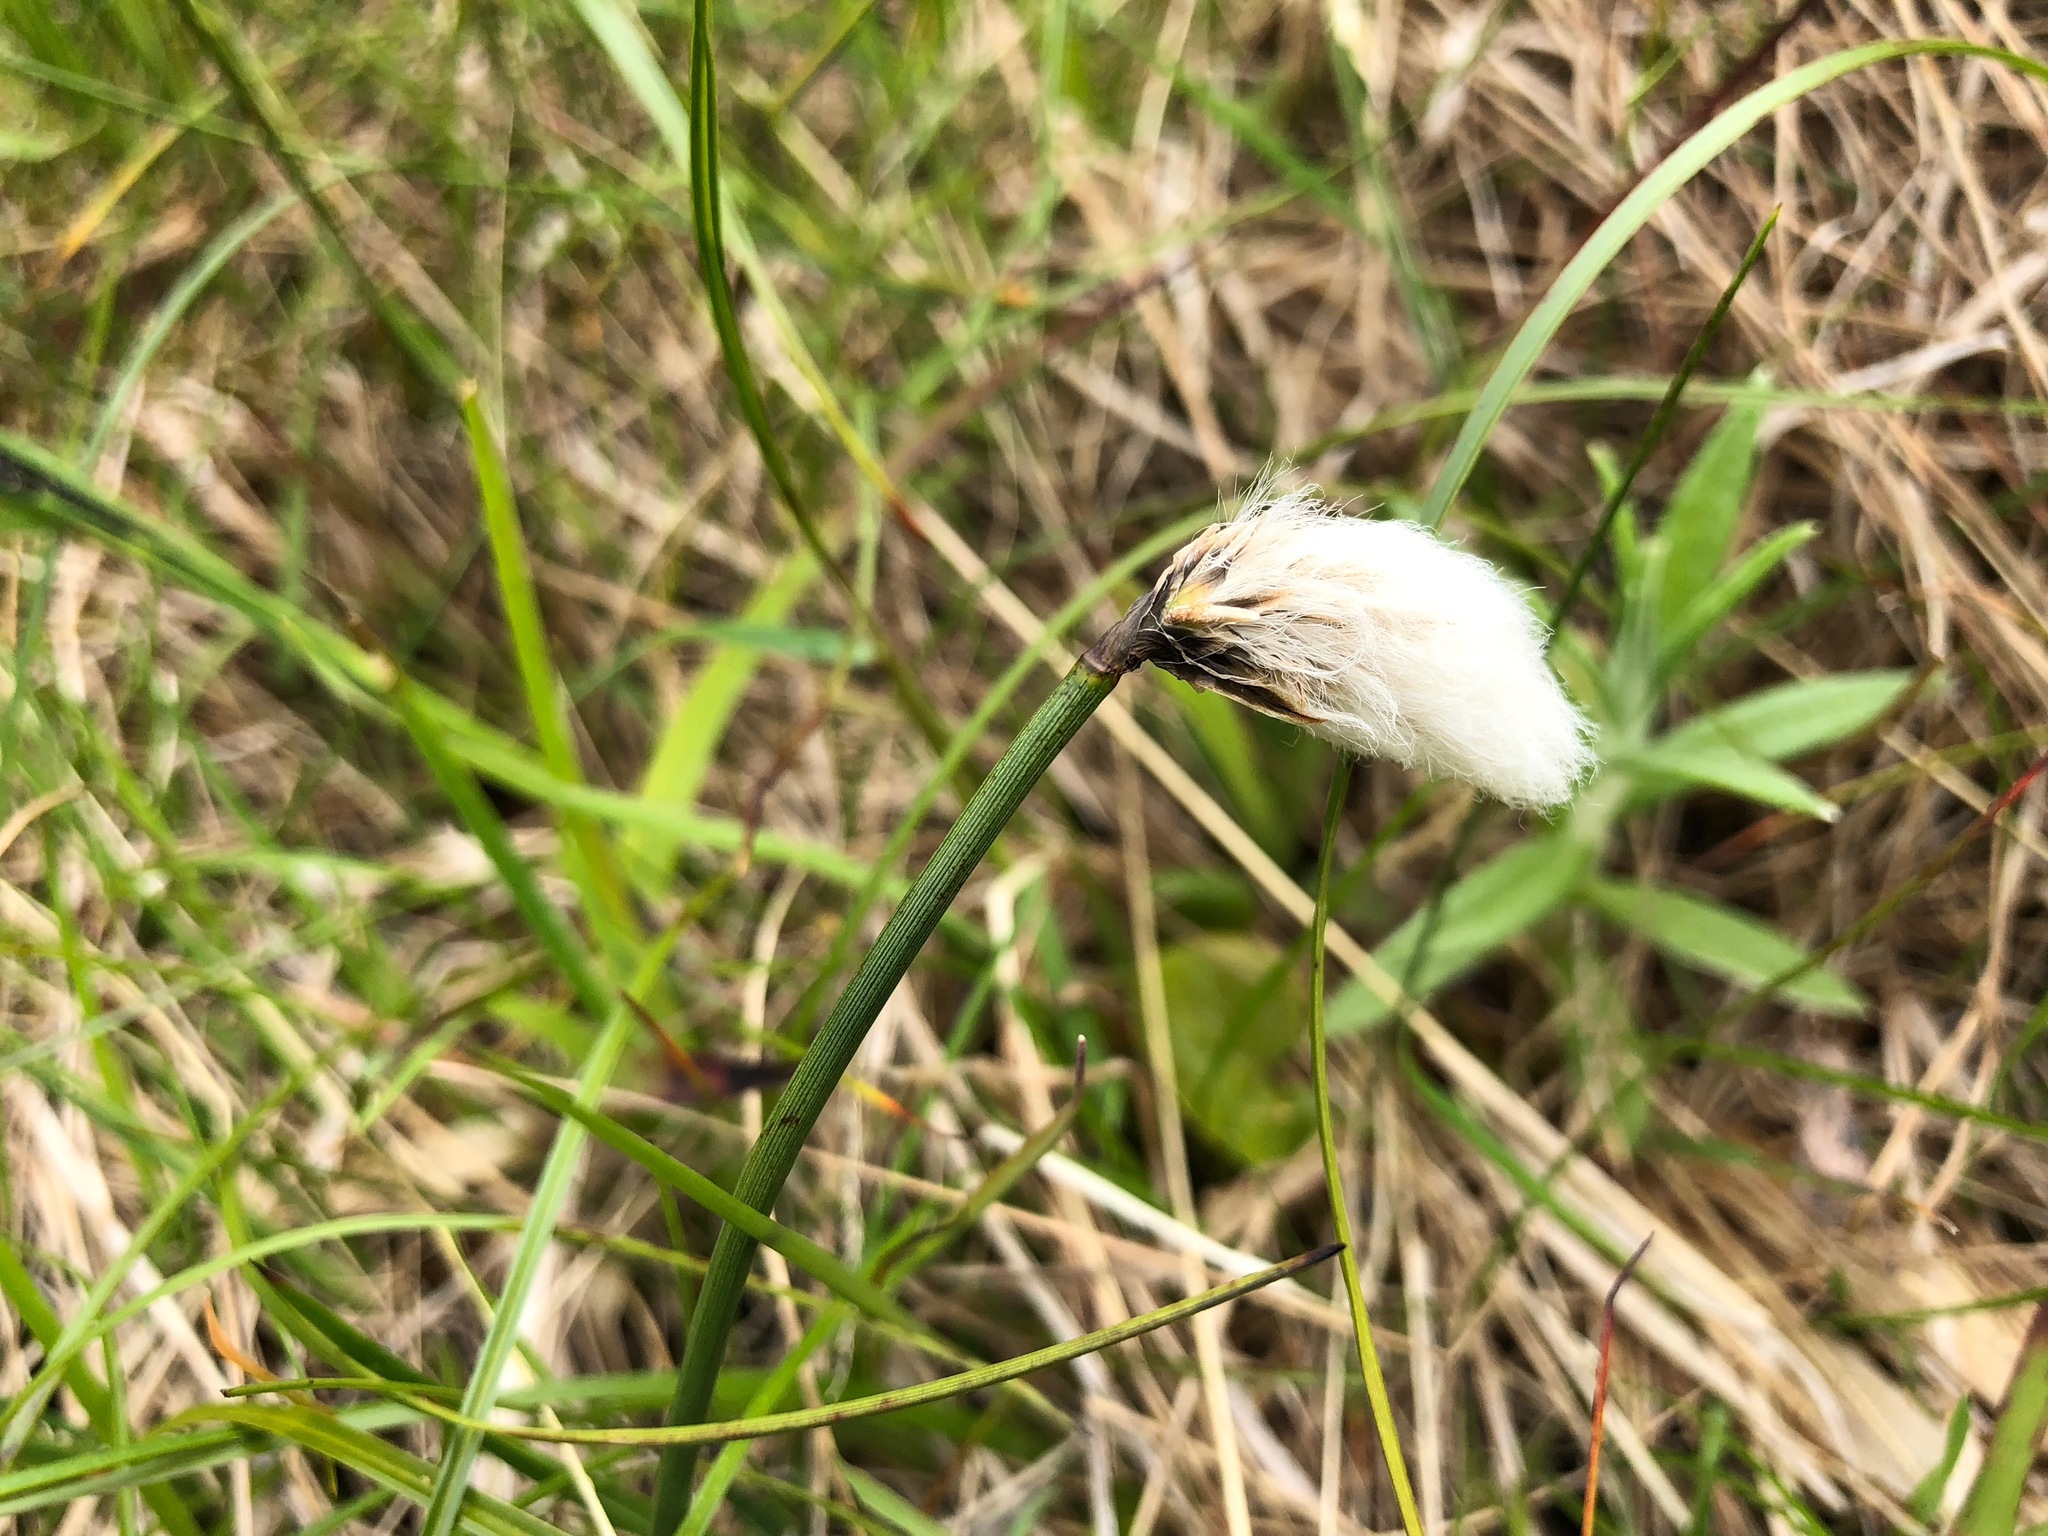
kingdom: Plantae
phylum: Tracheophyta
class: Liliopsida
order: Poales
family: Cyperaceae
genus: Eriophorum
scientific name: Eriophorum chamissonis
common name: Chamisso's cottongrass
